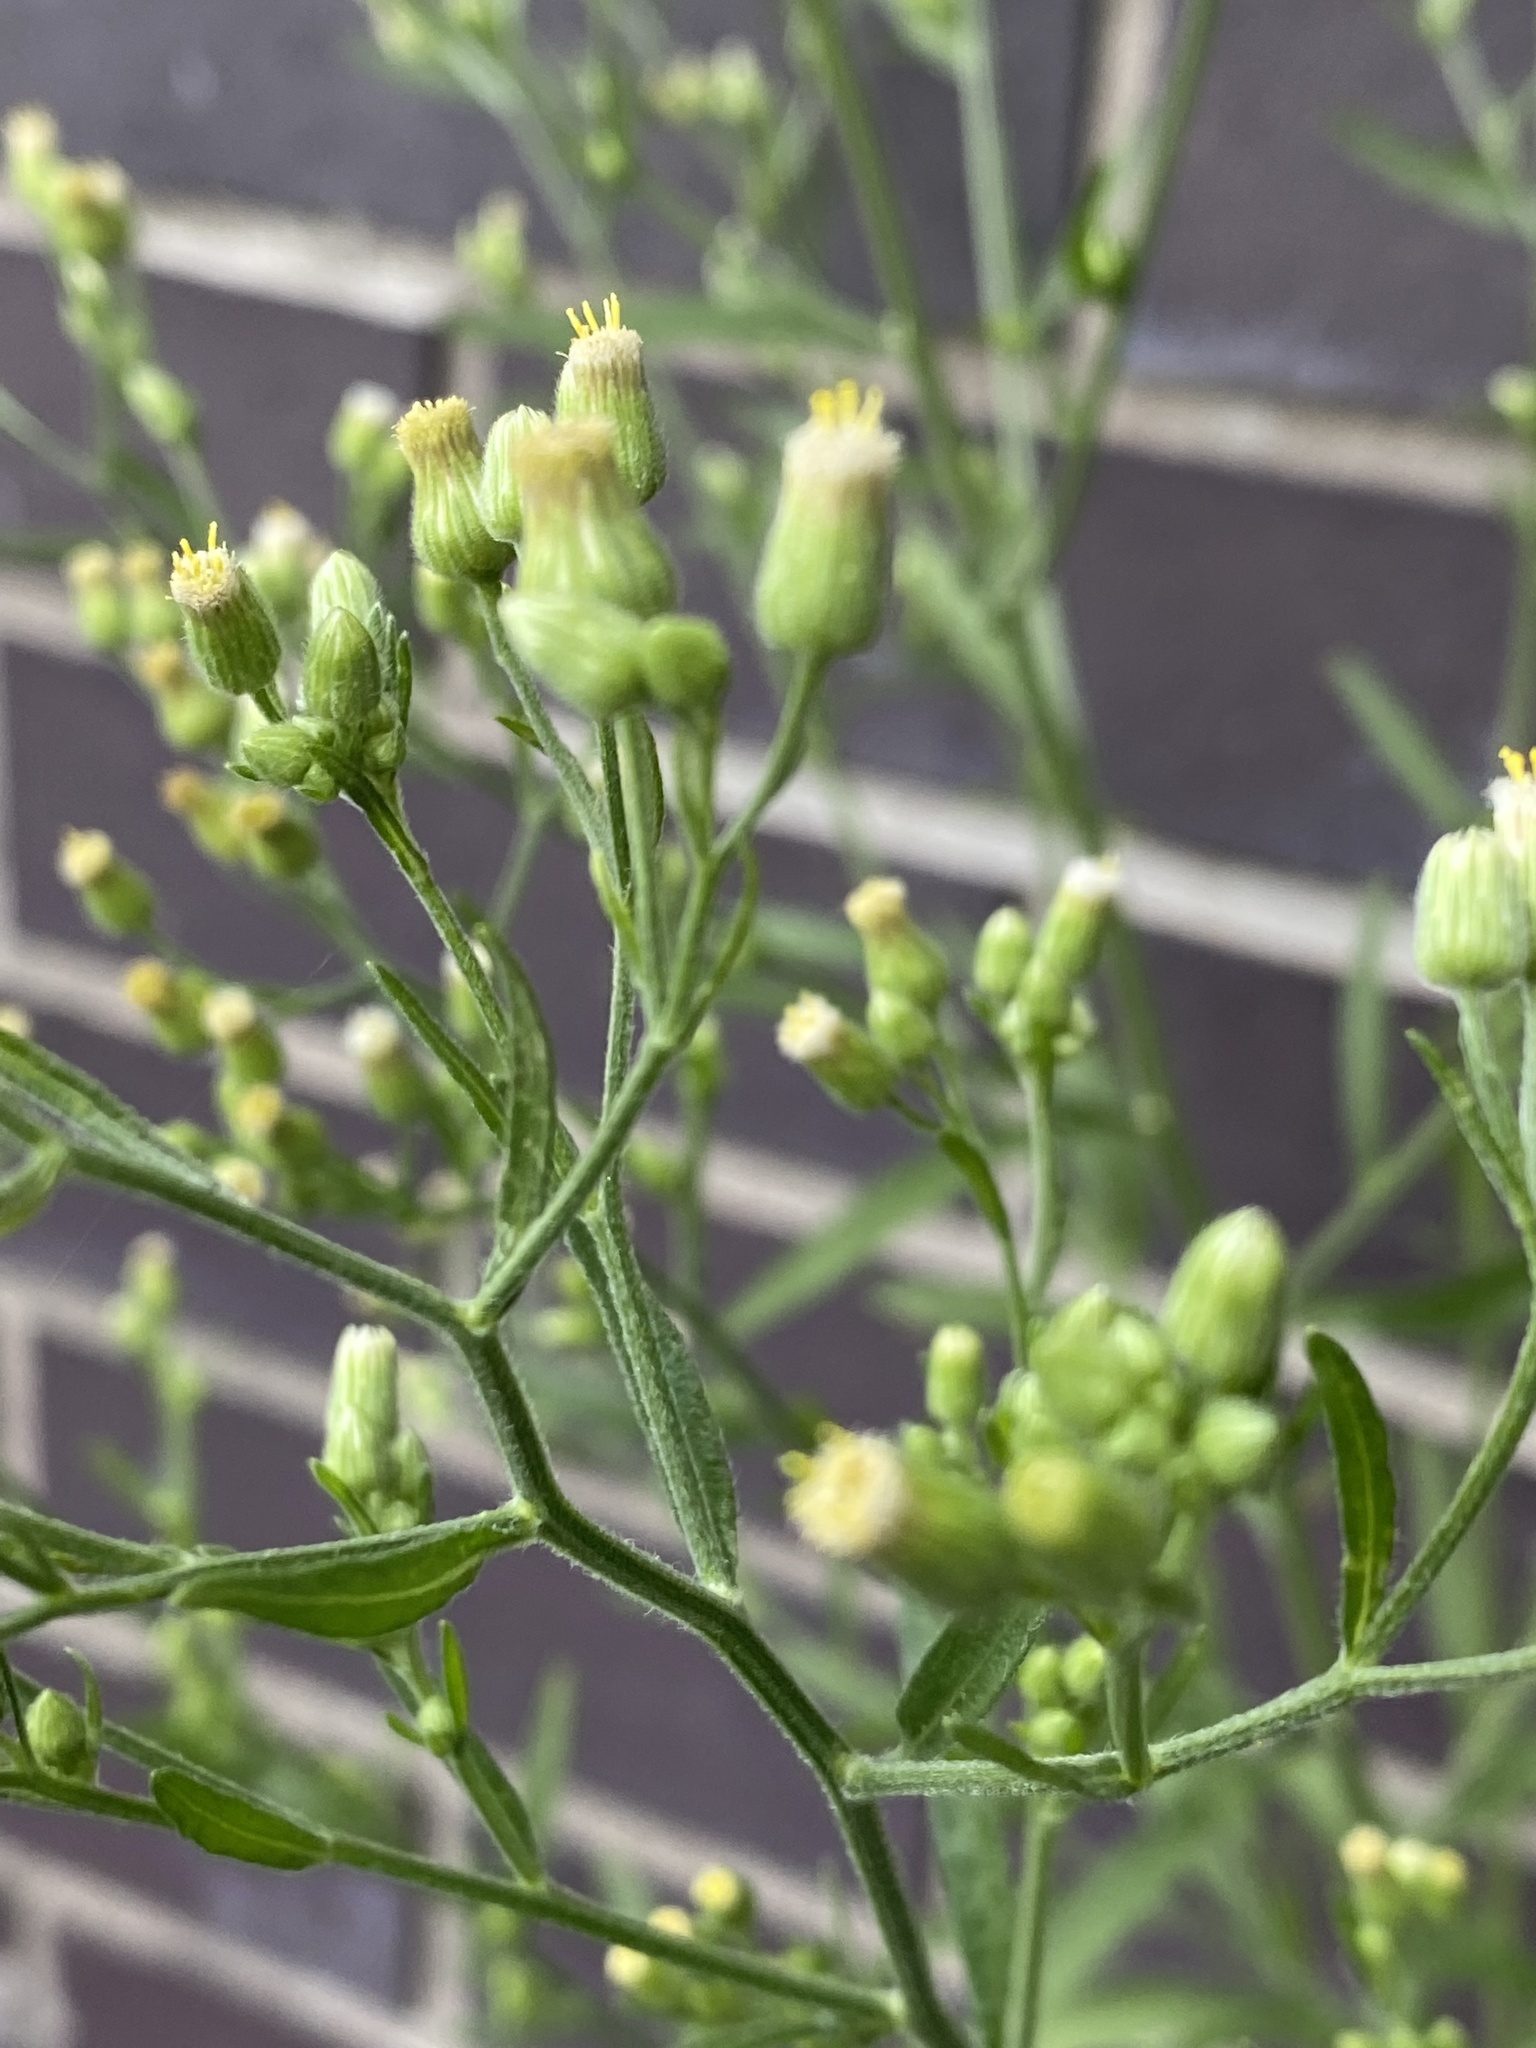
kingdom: Plantae
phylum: Tracheophyta
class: Magnoliopsida
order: Asterales
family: Asteraceae
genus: Erigeron
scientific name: Erigeron sumatrensis
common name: Daisy
